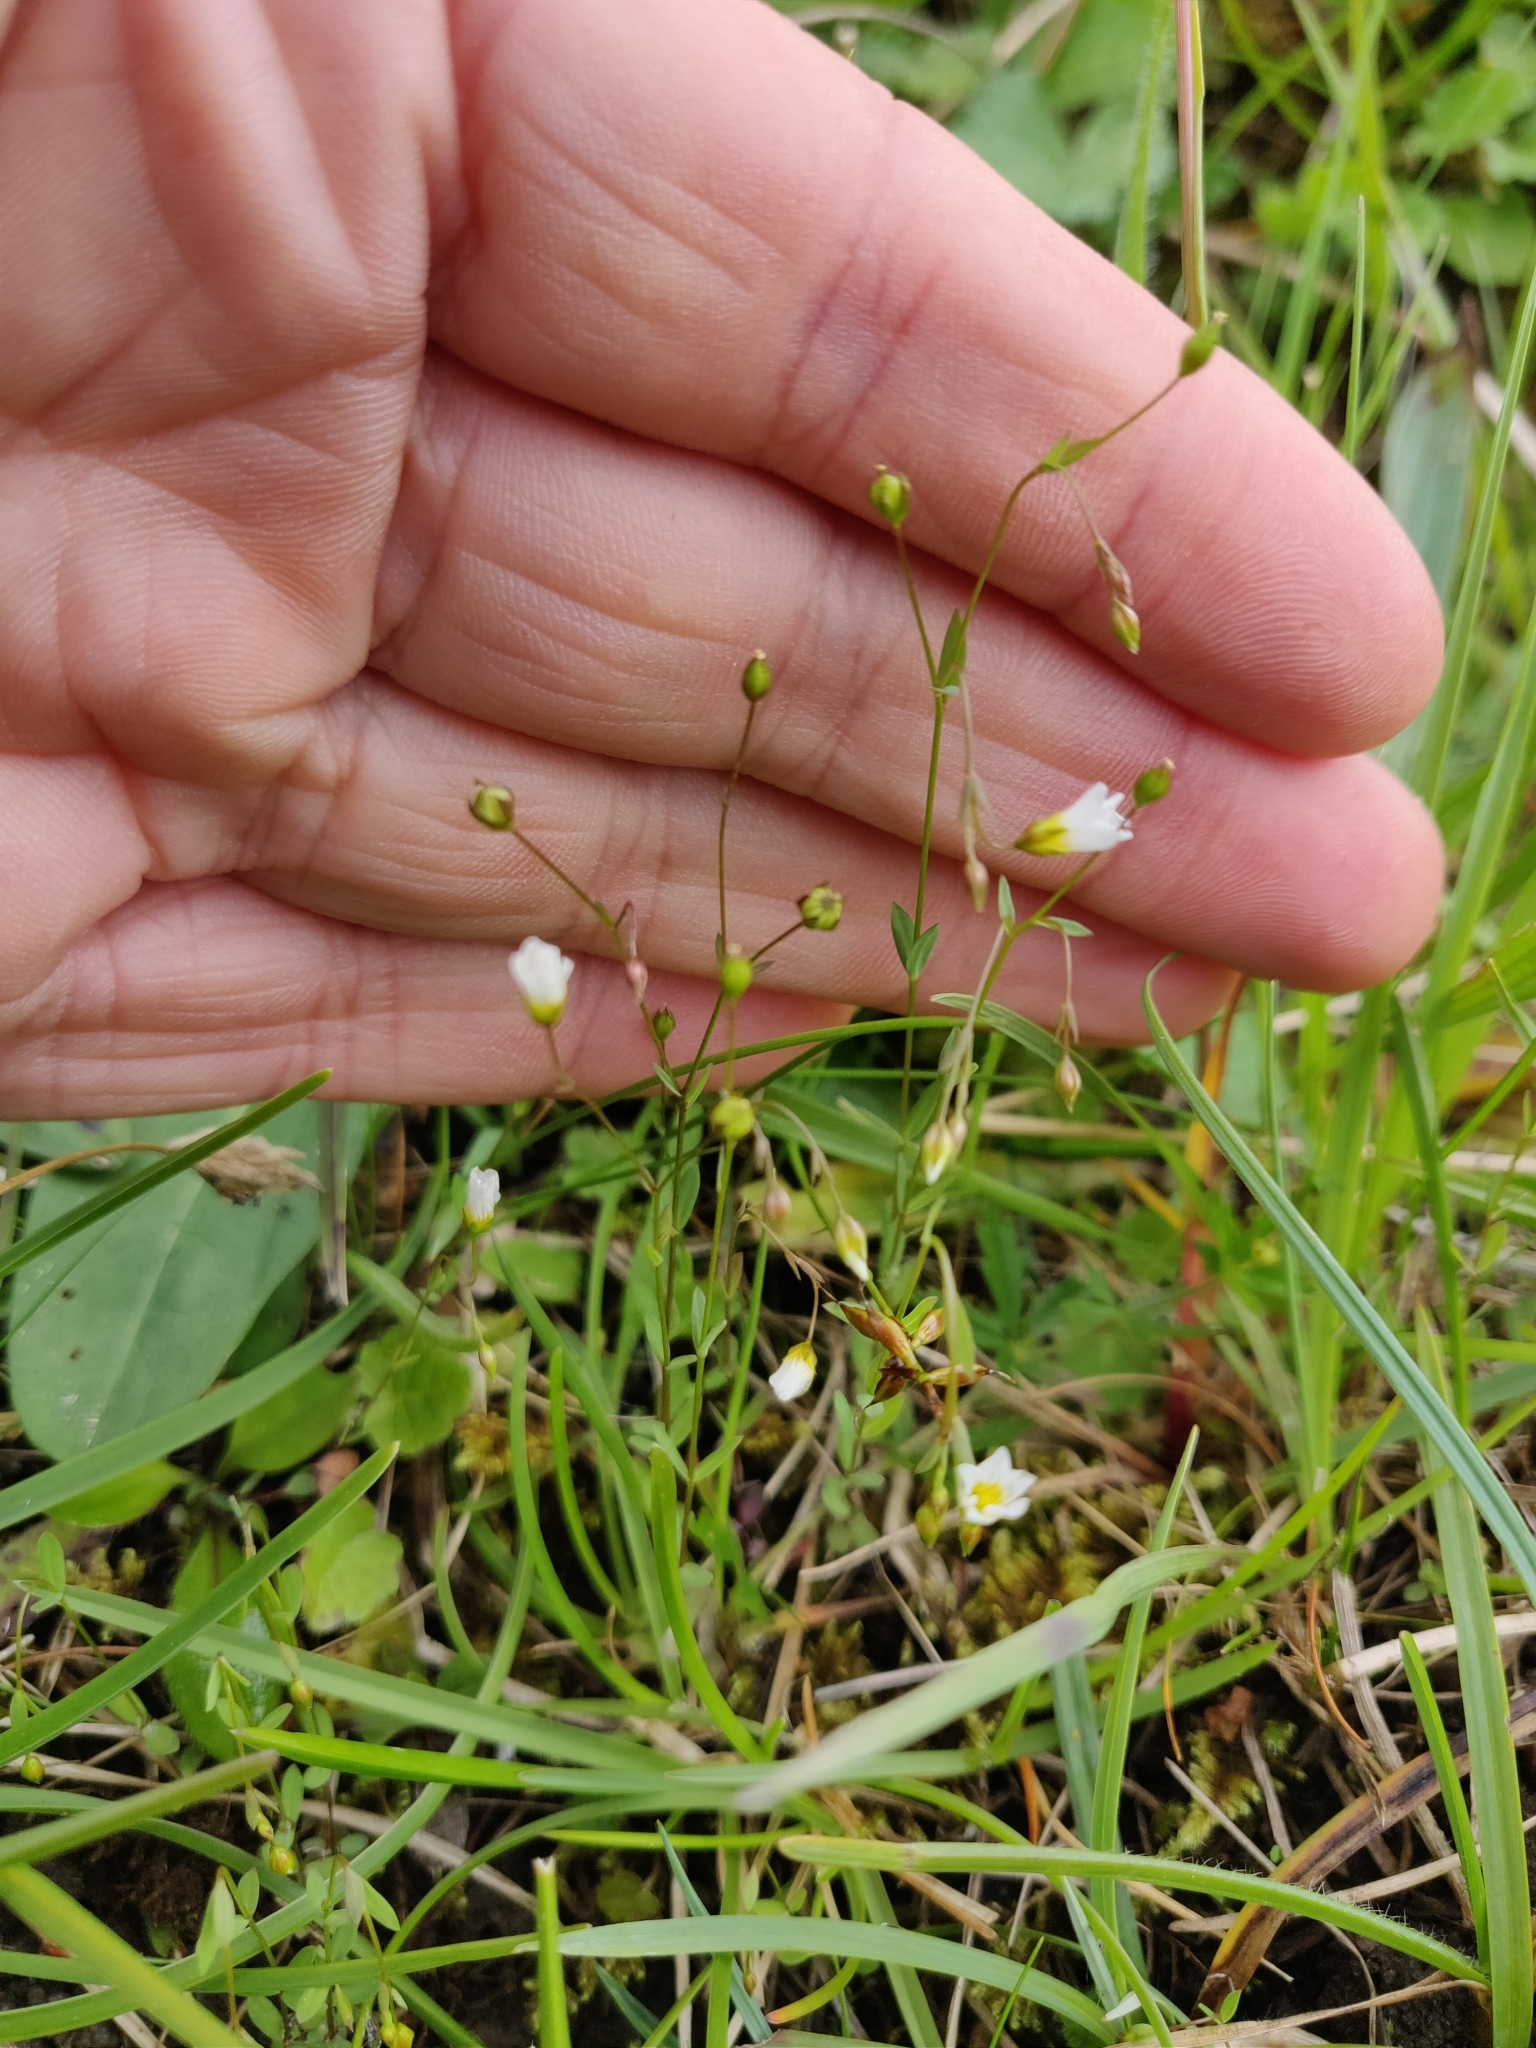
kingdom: Plantae
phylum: Tracheophyta
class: Magnoliopsida
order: Malpighiales
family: Linaceae
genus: Linum
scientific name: Linum catharticum
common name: Fairy flax
